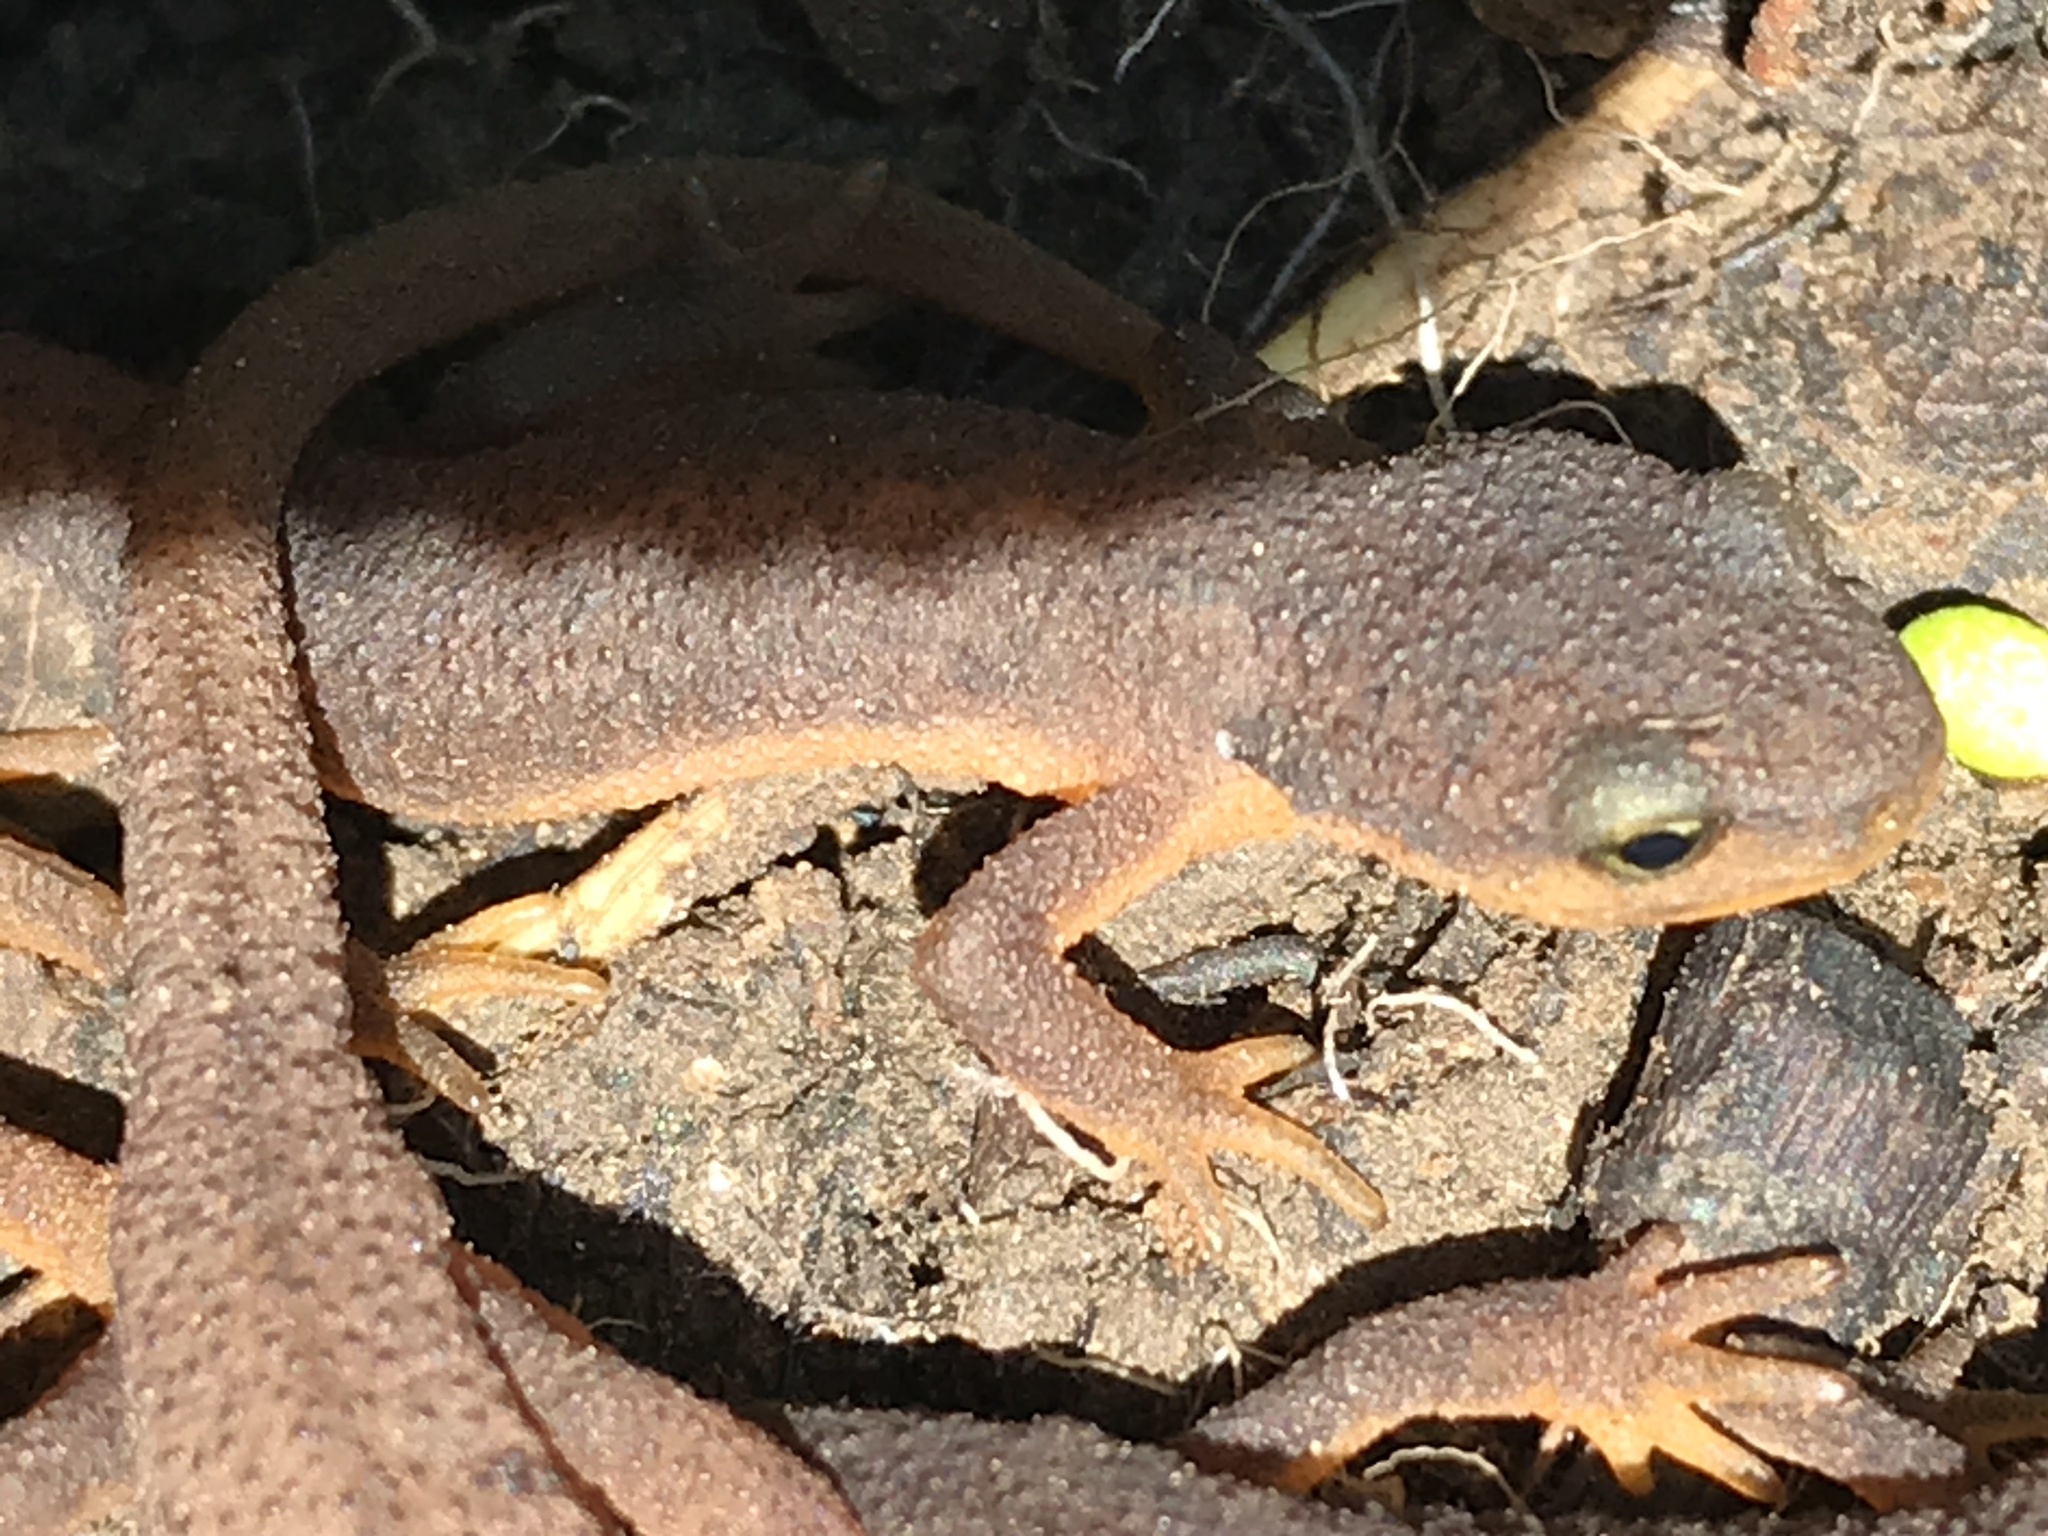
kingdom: Animalia
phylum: Chordata
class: Amphibia
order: Caudata
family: Salamandridae
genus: Taricha
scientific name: Taricha granulosa
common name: Roughskin newt
